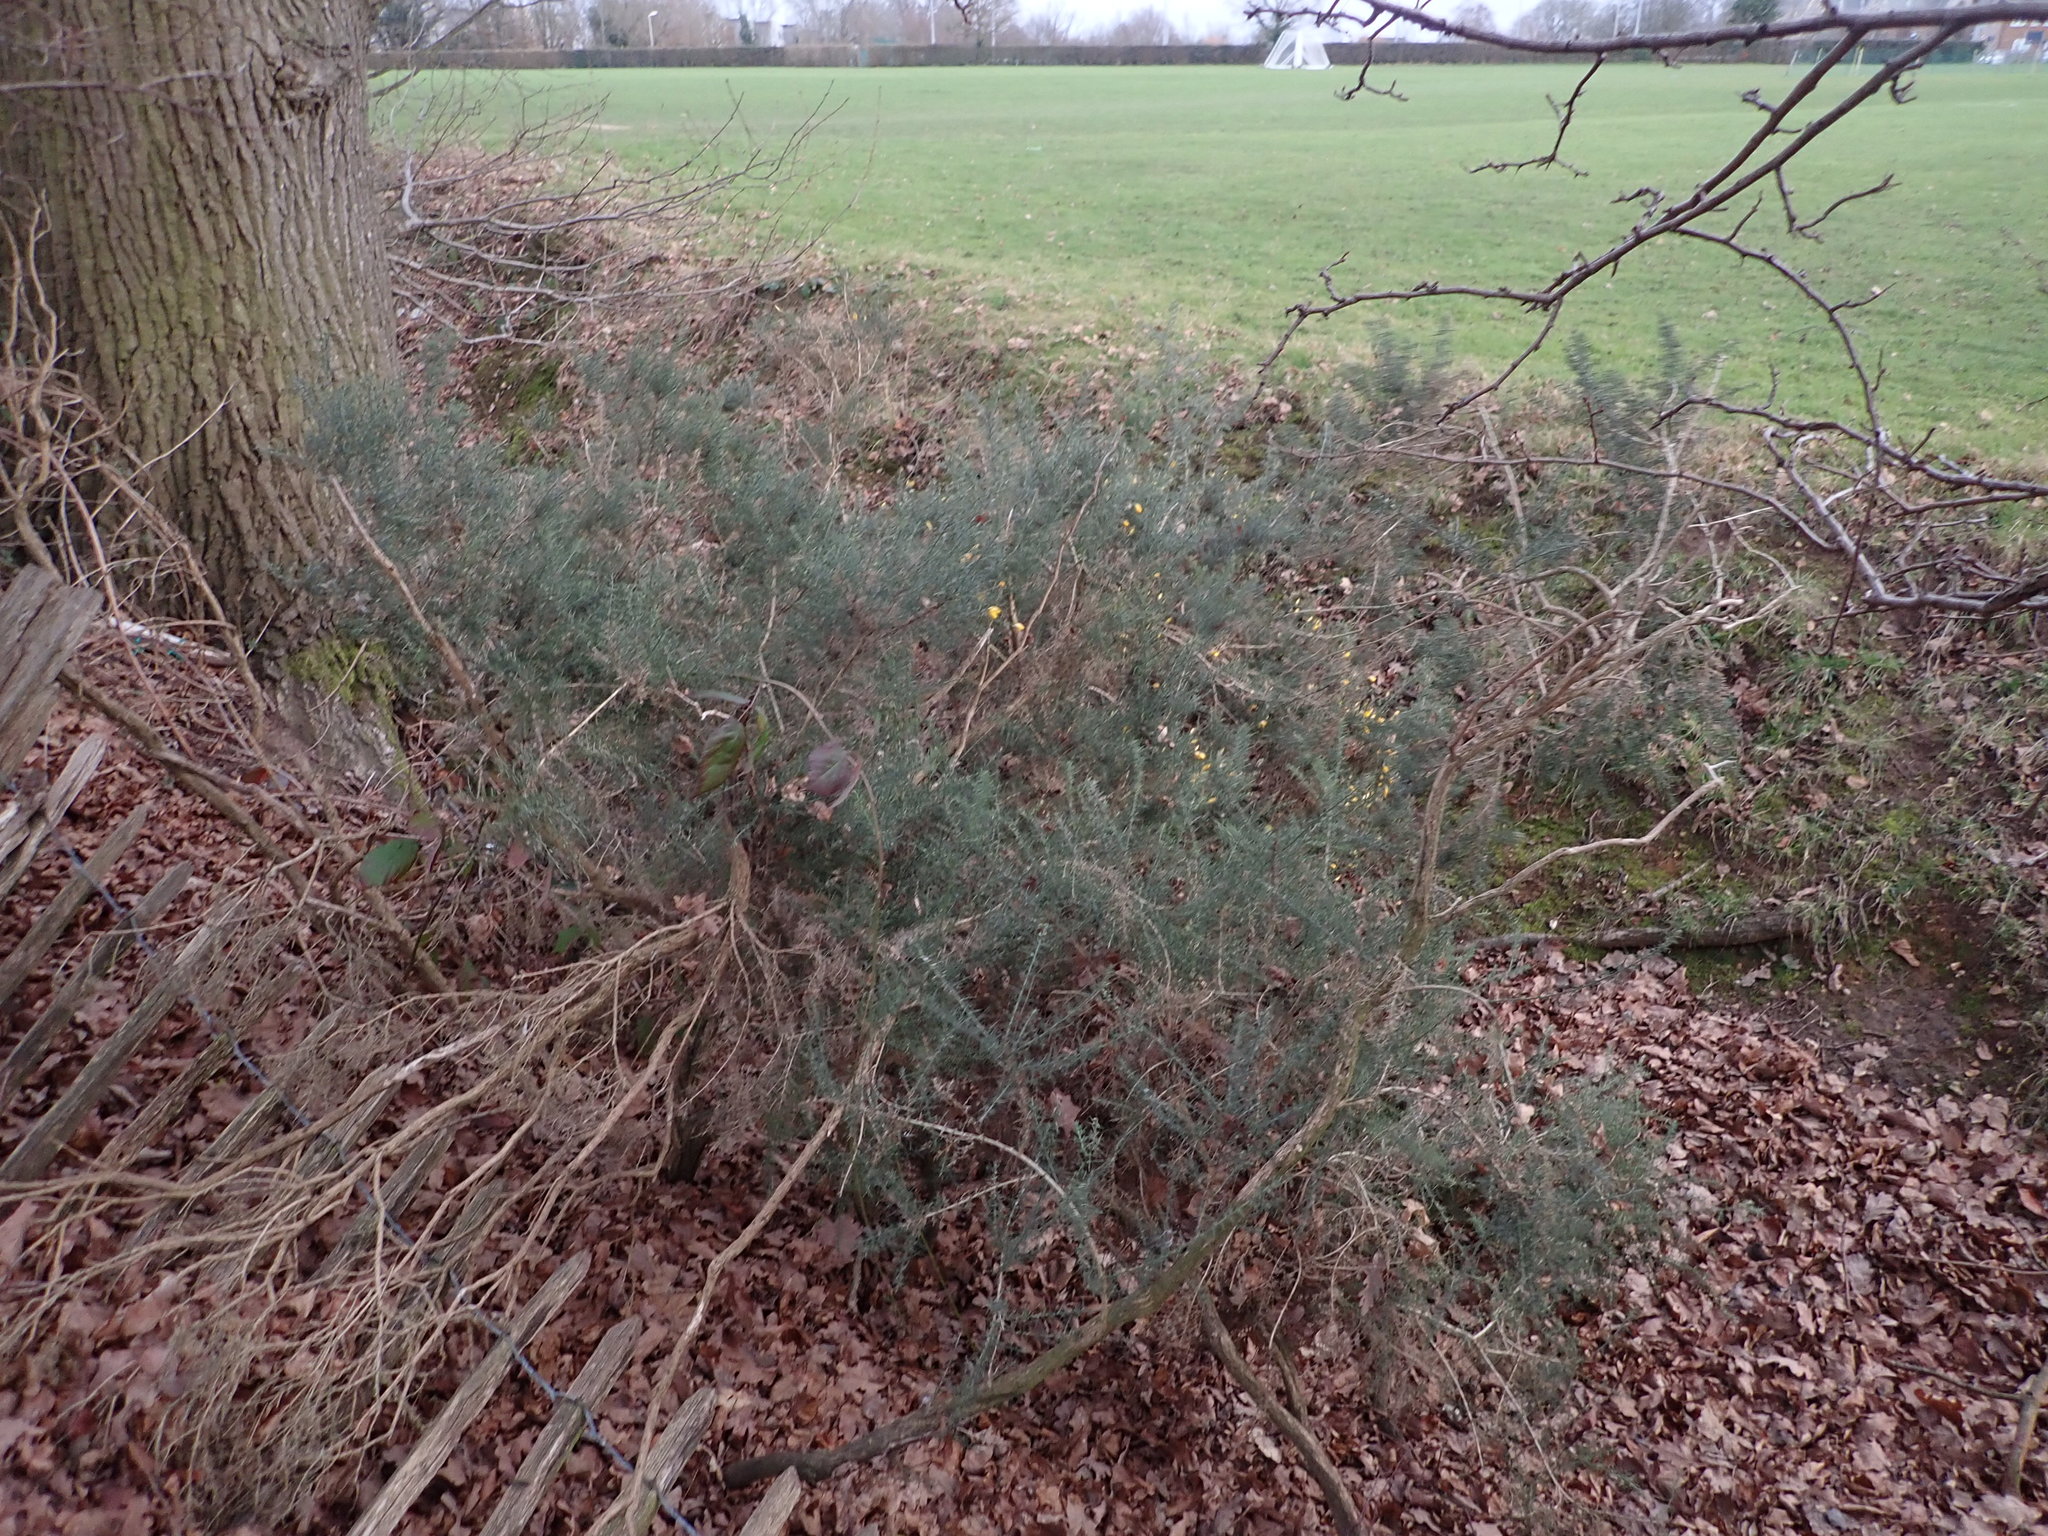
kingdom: Plantae
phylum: Tracheophyta
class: Magnoliopsida
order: Fabales
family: Fabaceae
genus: Ulex
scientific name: Ulex europaeus
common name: Common gorse
